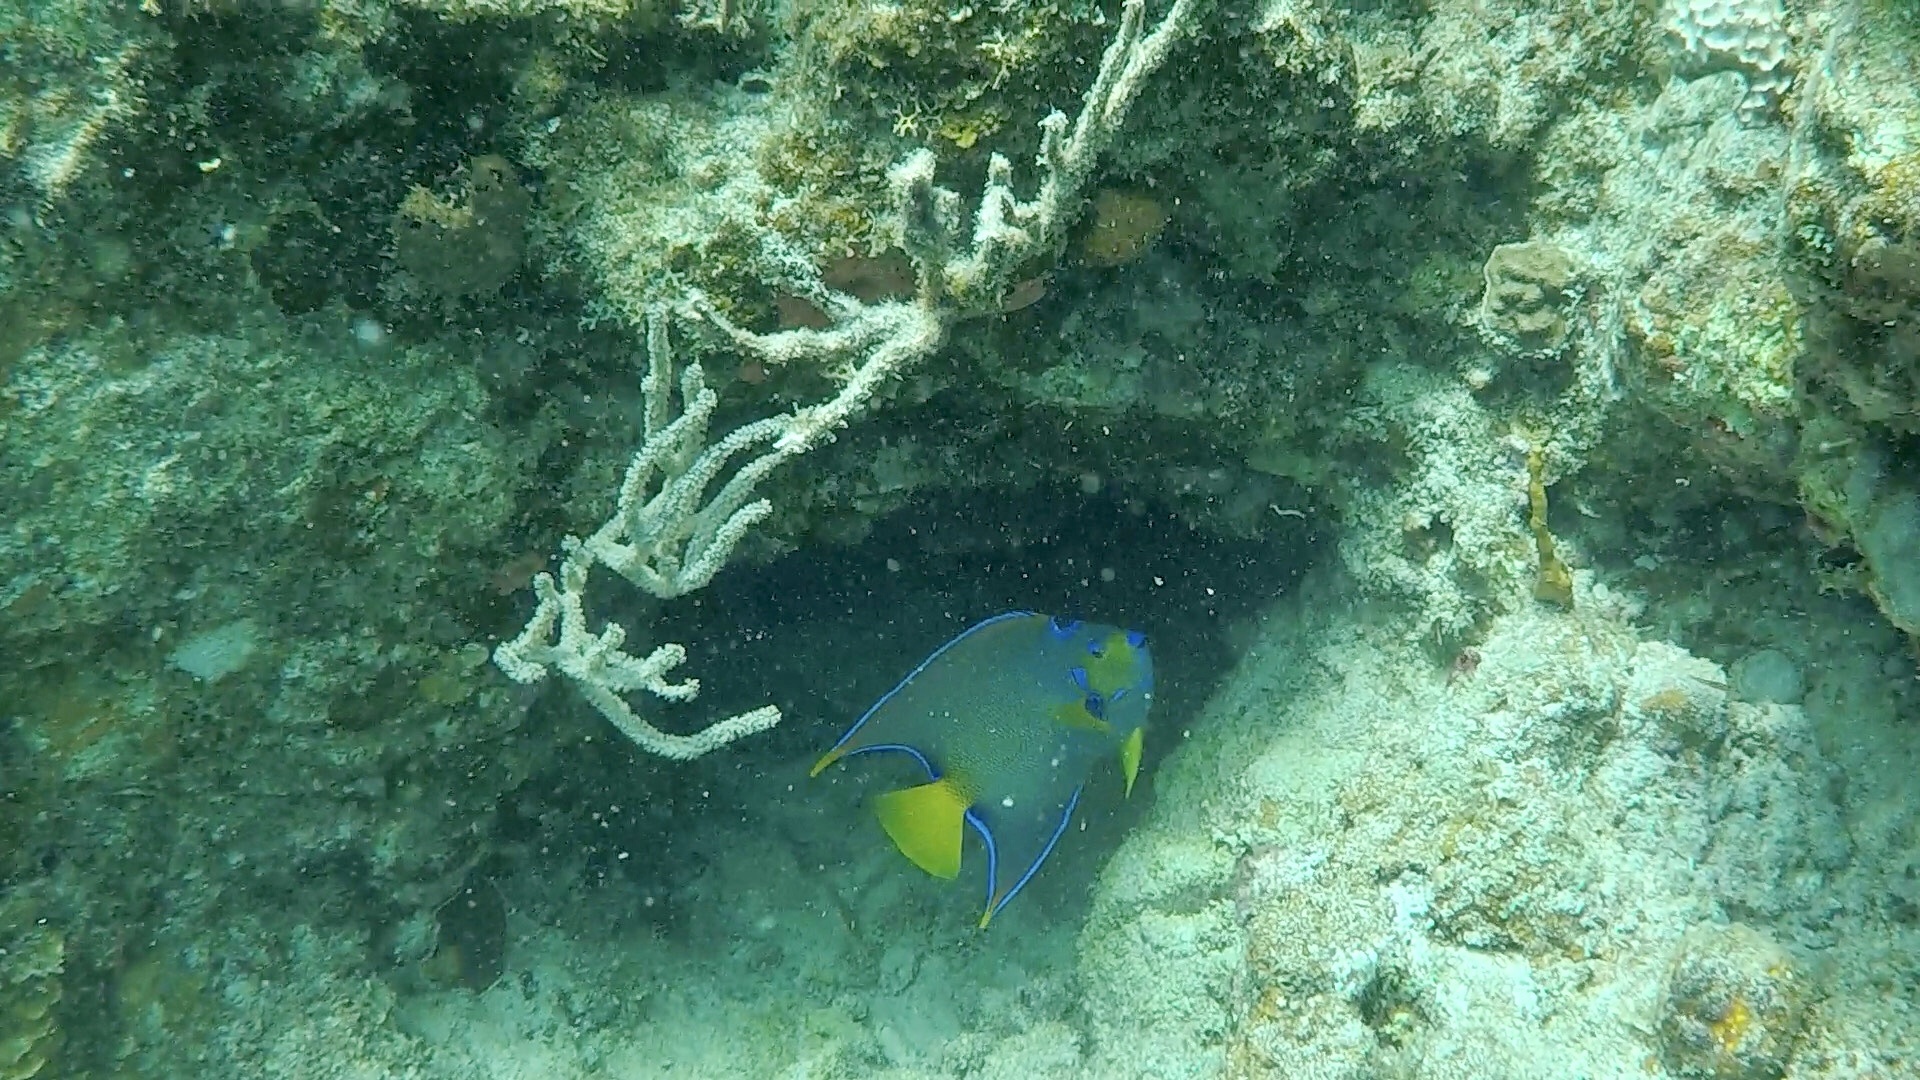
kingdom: Animalia
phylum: Chordata
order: Perciformes
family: Pomacanthidae
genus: Holacanthus
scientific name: Holacanthus ciliaris
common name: Queen angelfish
